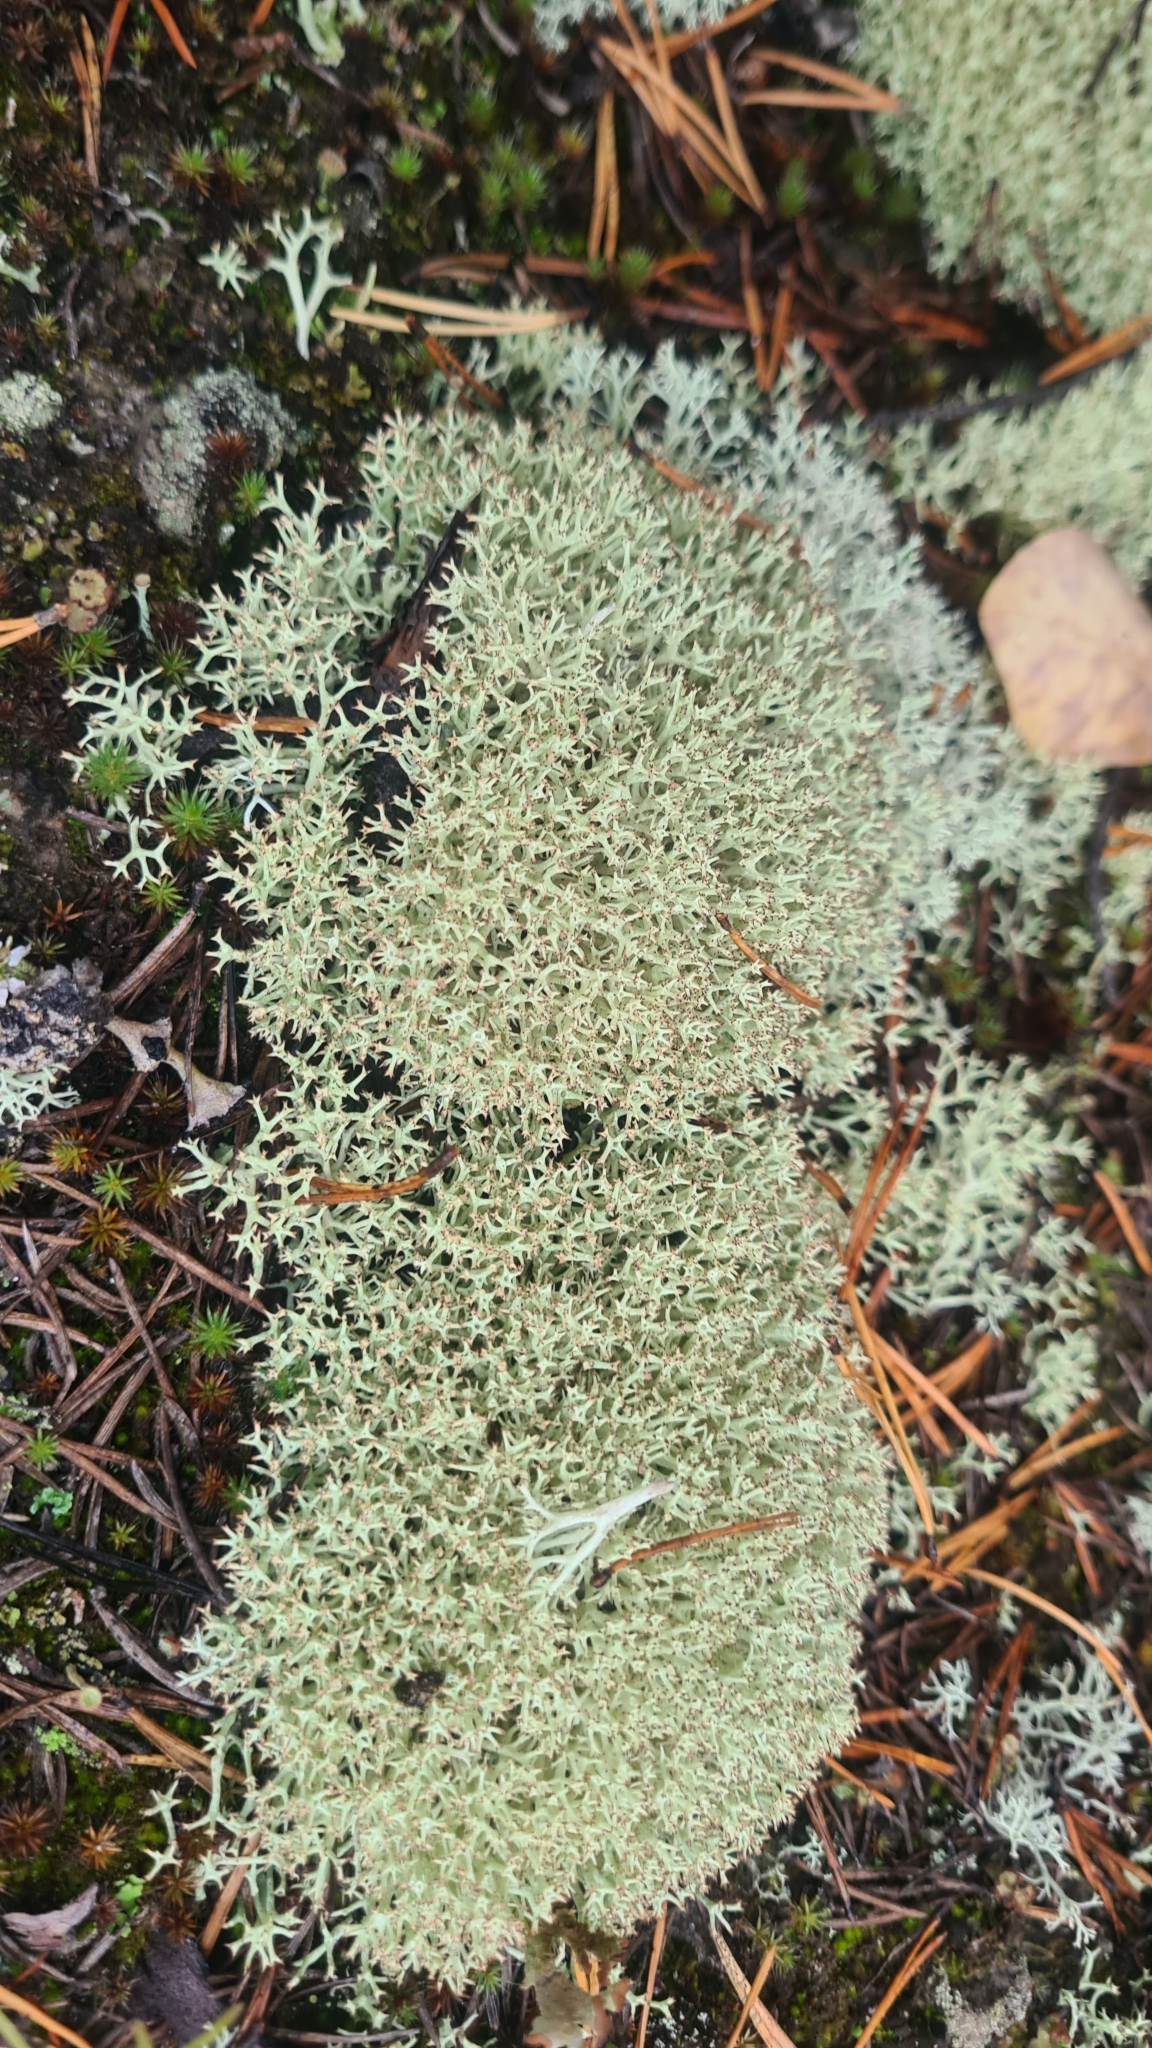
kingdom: Fungi
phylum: Ascomycota
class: Lecanoromycetes
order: Lecanorales
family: Cladoniaceae
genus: Cladonia
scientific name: Cladonia uncialis
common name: Thorn lichen
